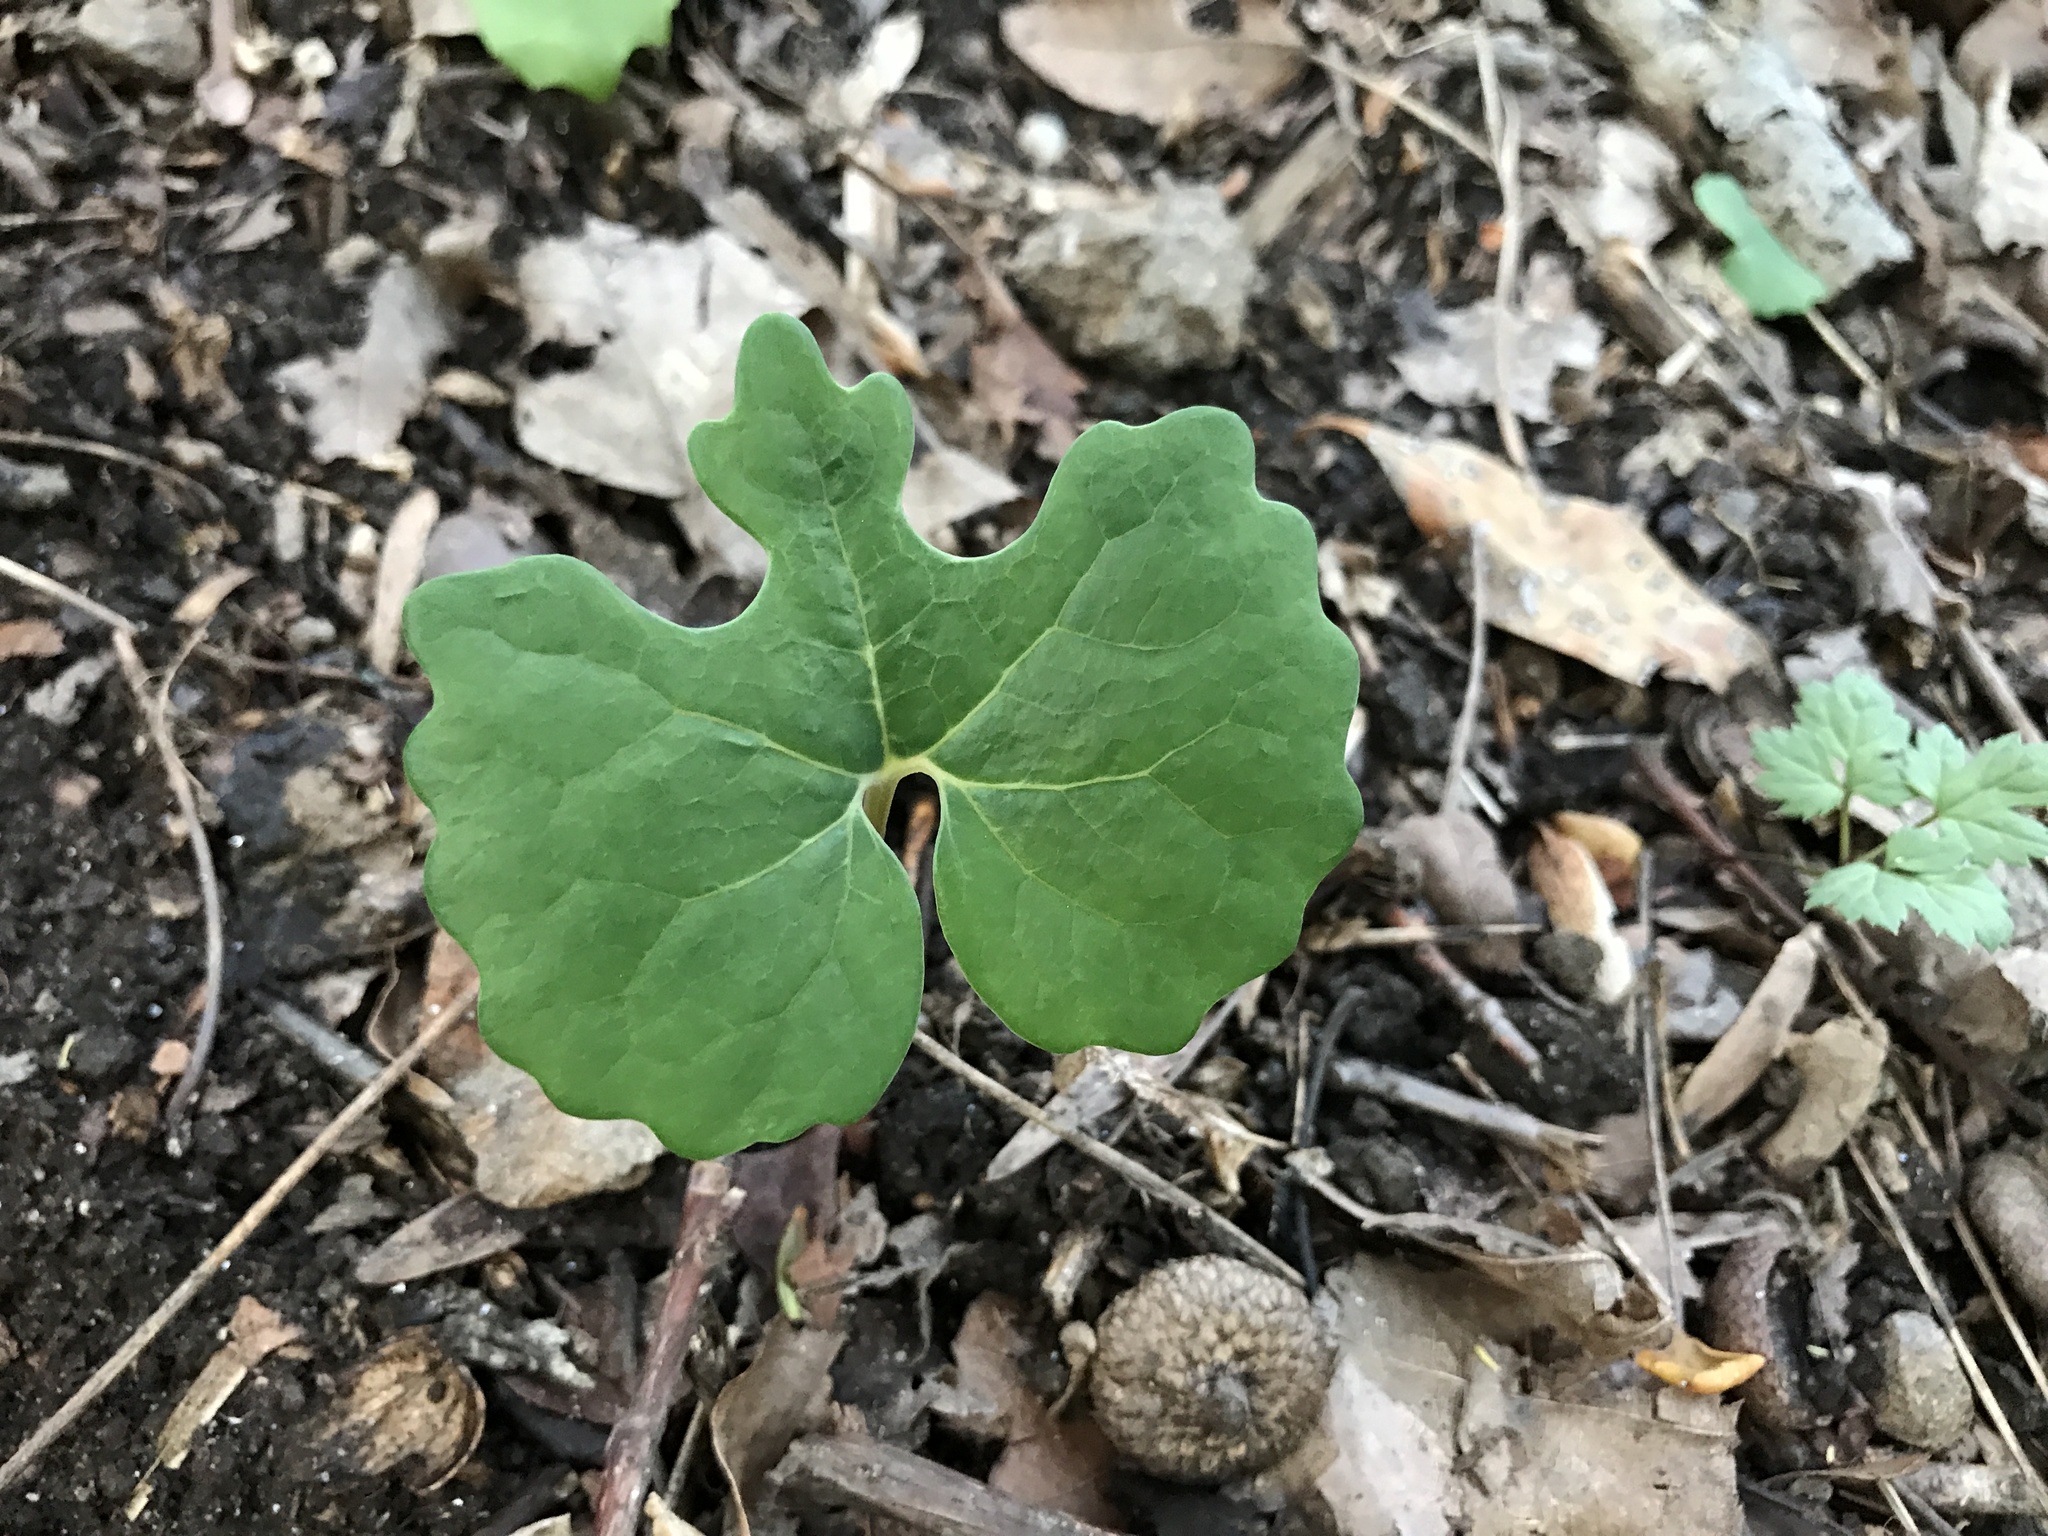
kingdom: Plantae
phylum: Tracheophyta
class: Magnoliopsida
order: Ranunculales
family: Papaveraceae
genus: Sanguinaria
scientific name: Sanguinaria canadensis
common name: Bloodroot
